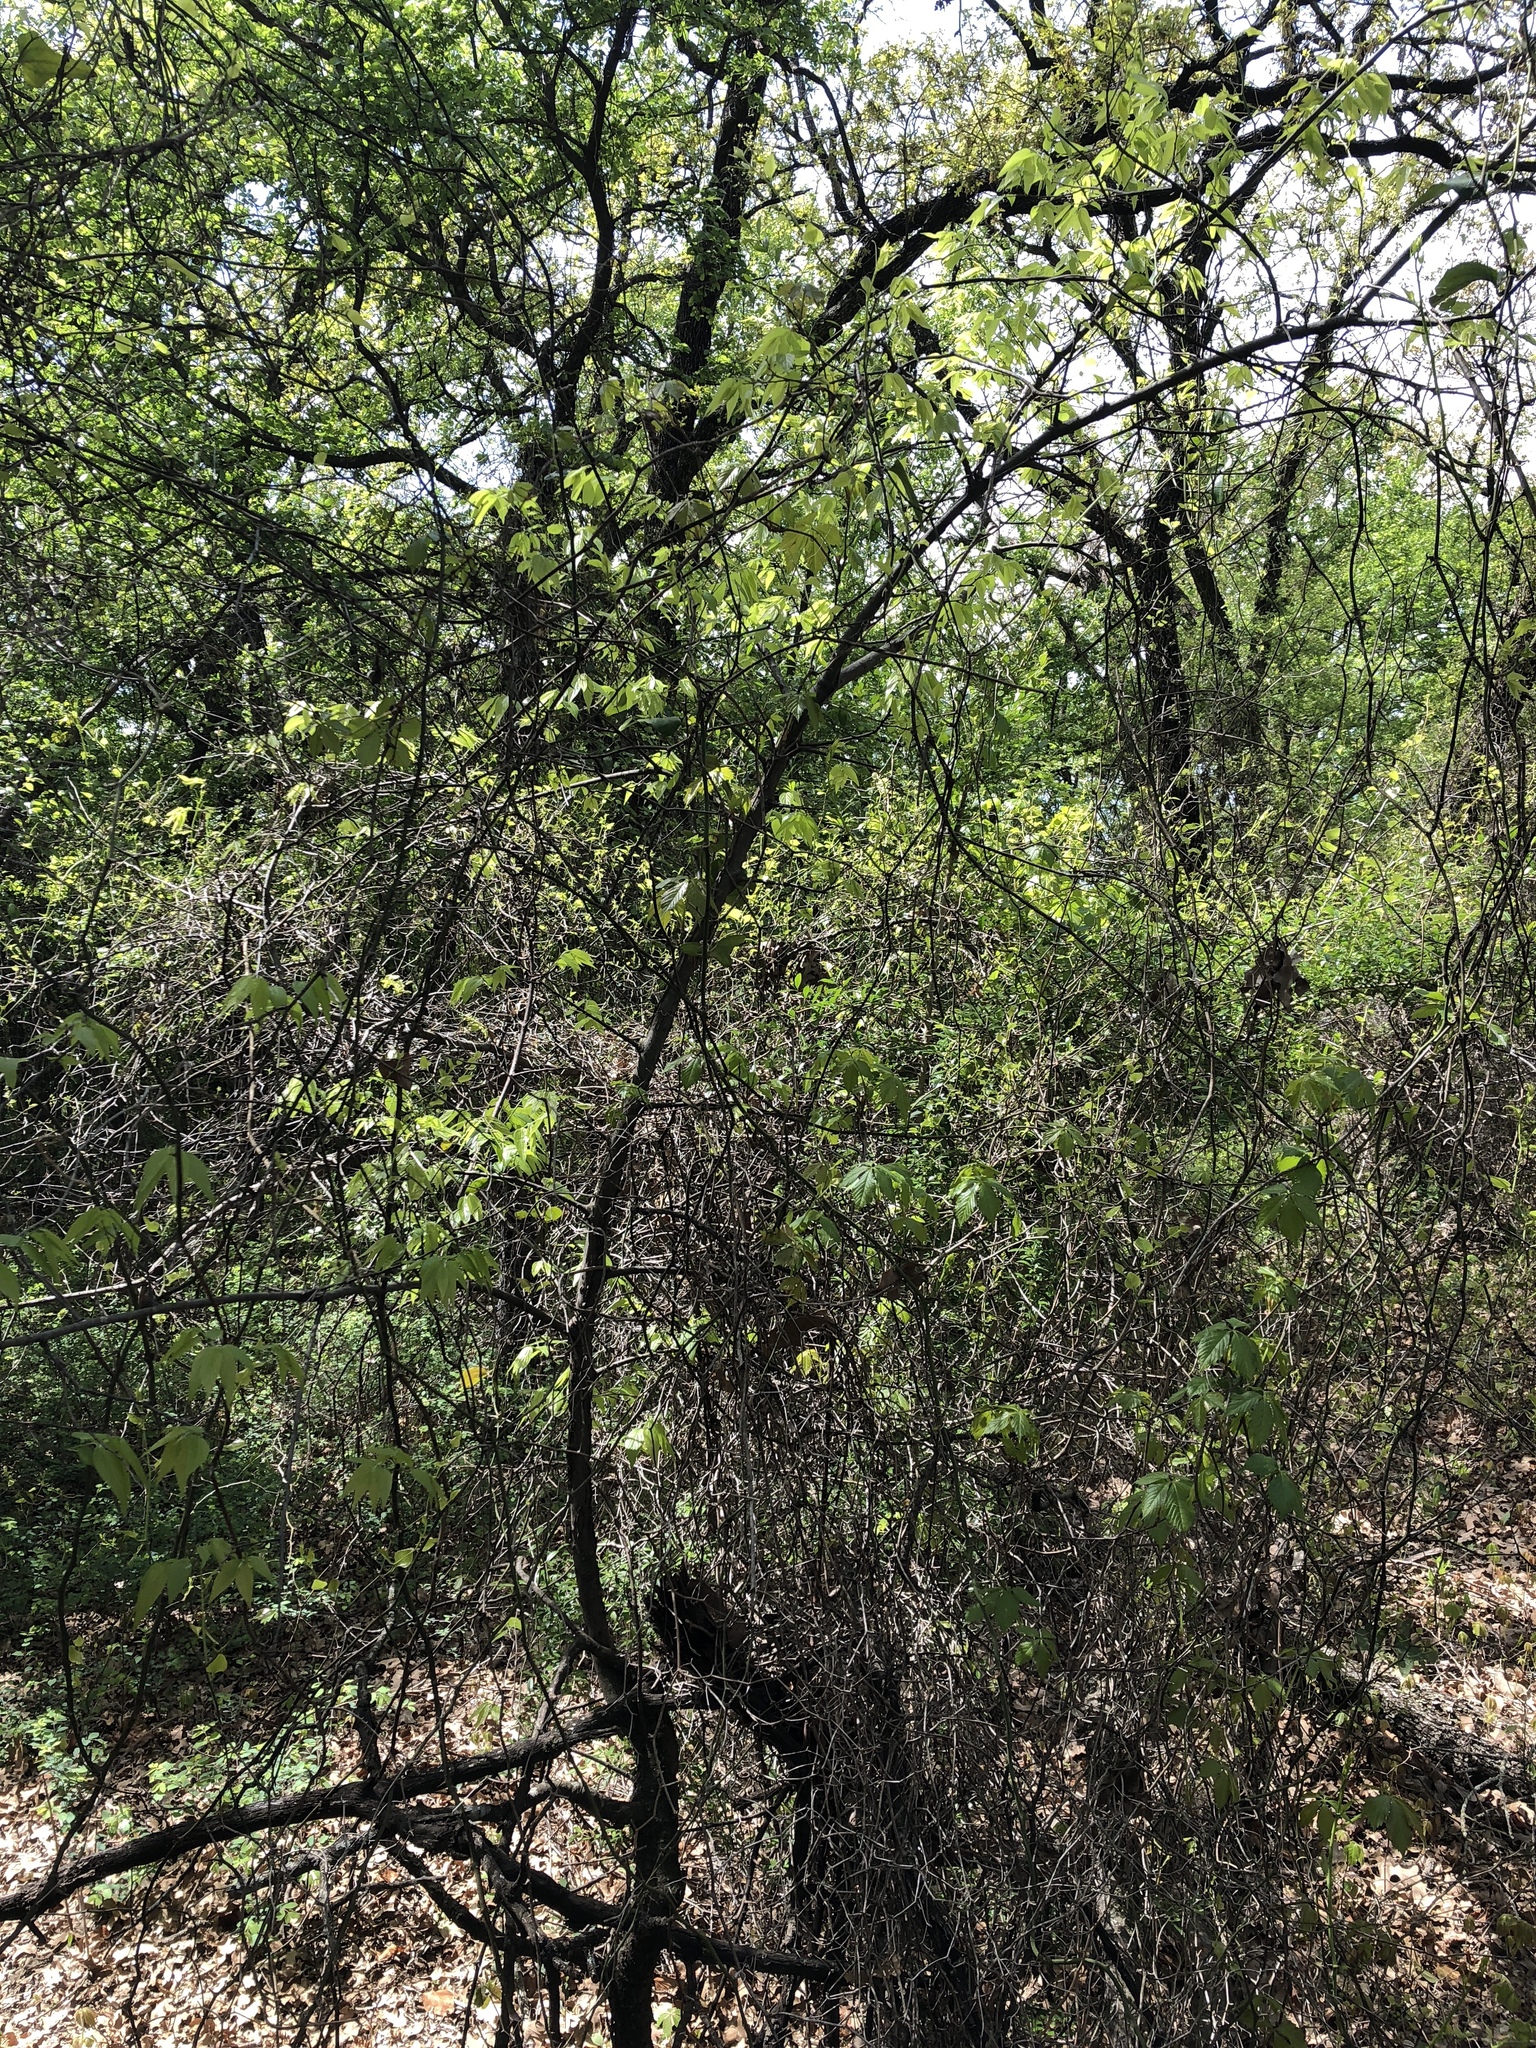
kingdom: Plantae
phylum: Tracheophyta
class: Magnoliopsida
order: Rosales
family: Cannabaceae
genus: Celtis
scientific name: Celtis laevigata
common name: Sugarberry
